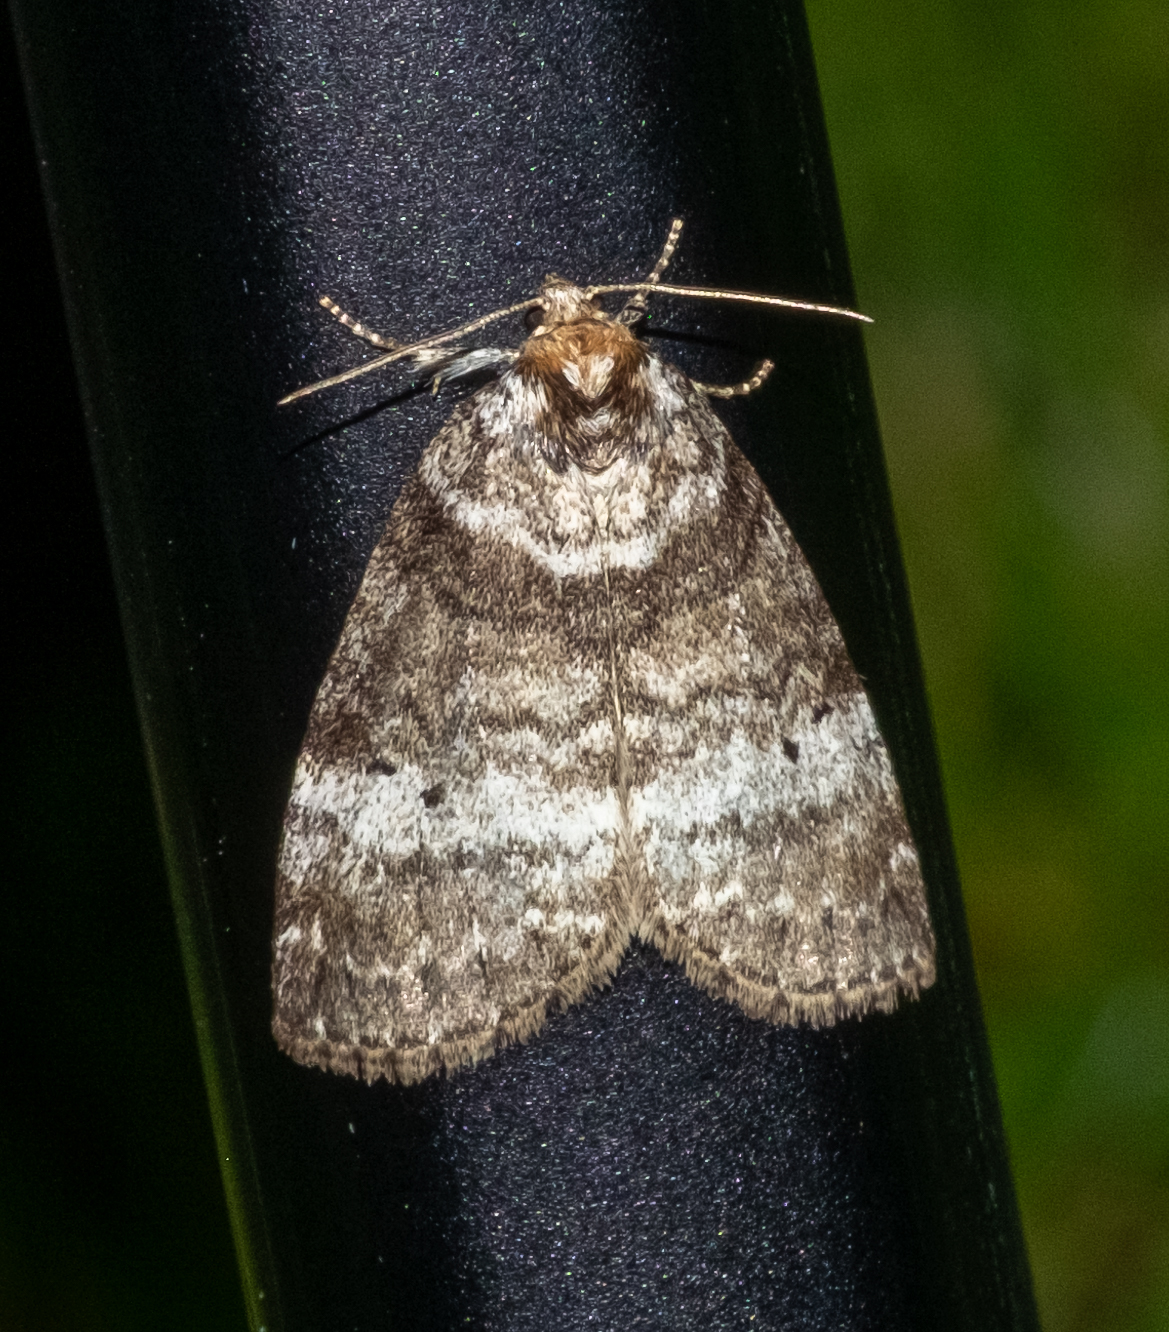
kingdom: Animalia
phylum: Arthropoda
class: Insecta
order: Lepidoptera
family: Drepanidae
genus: Ochropacha
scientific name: Ochropacha duplaris
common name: Common lutestring
